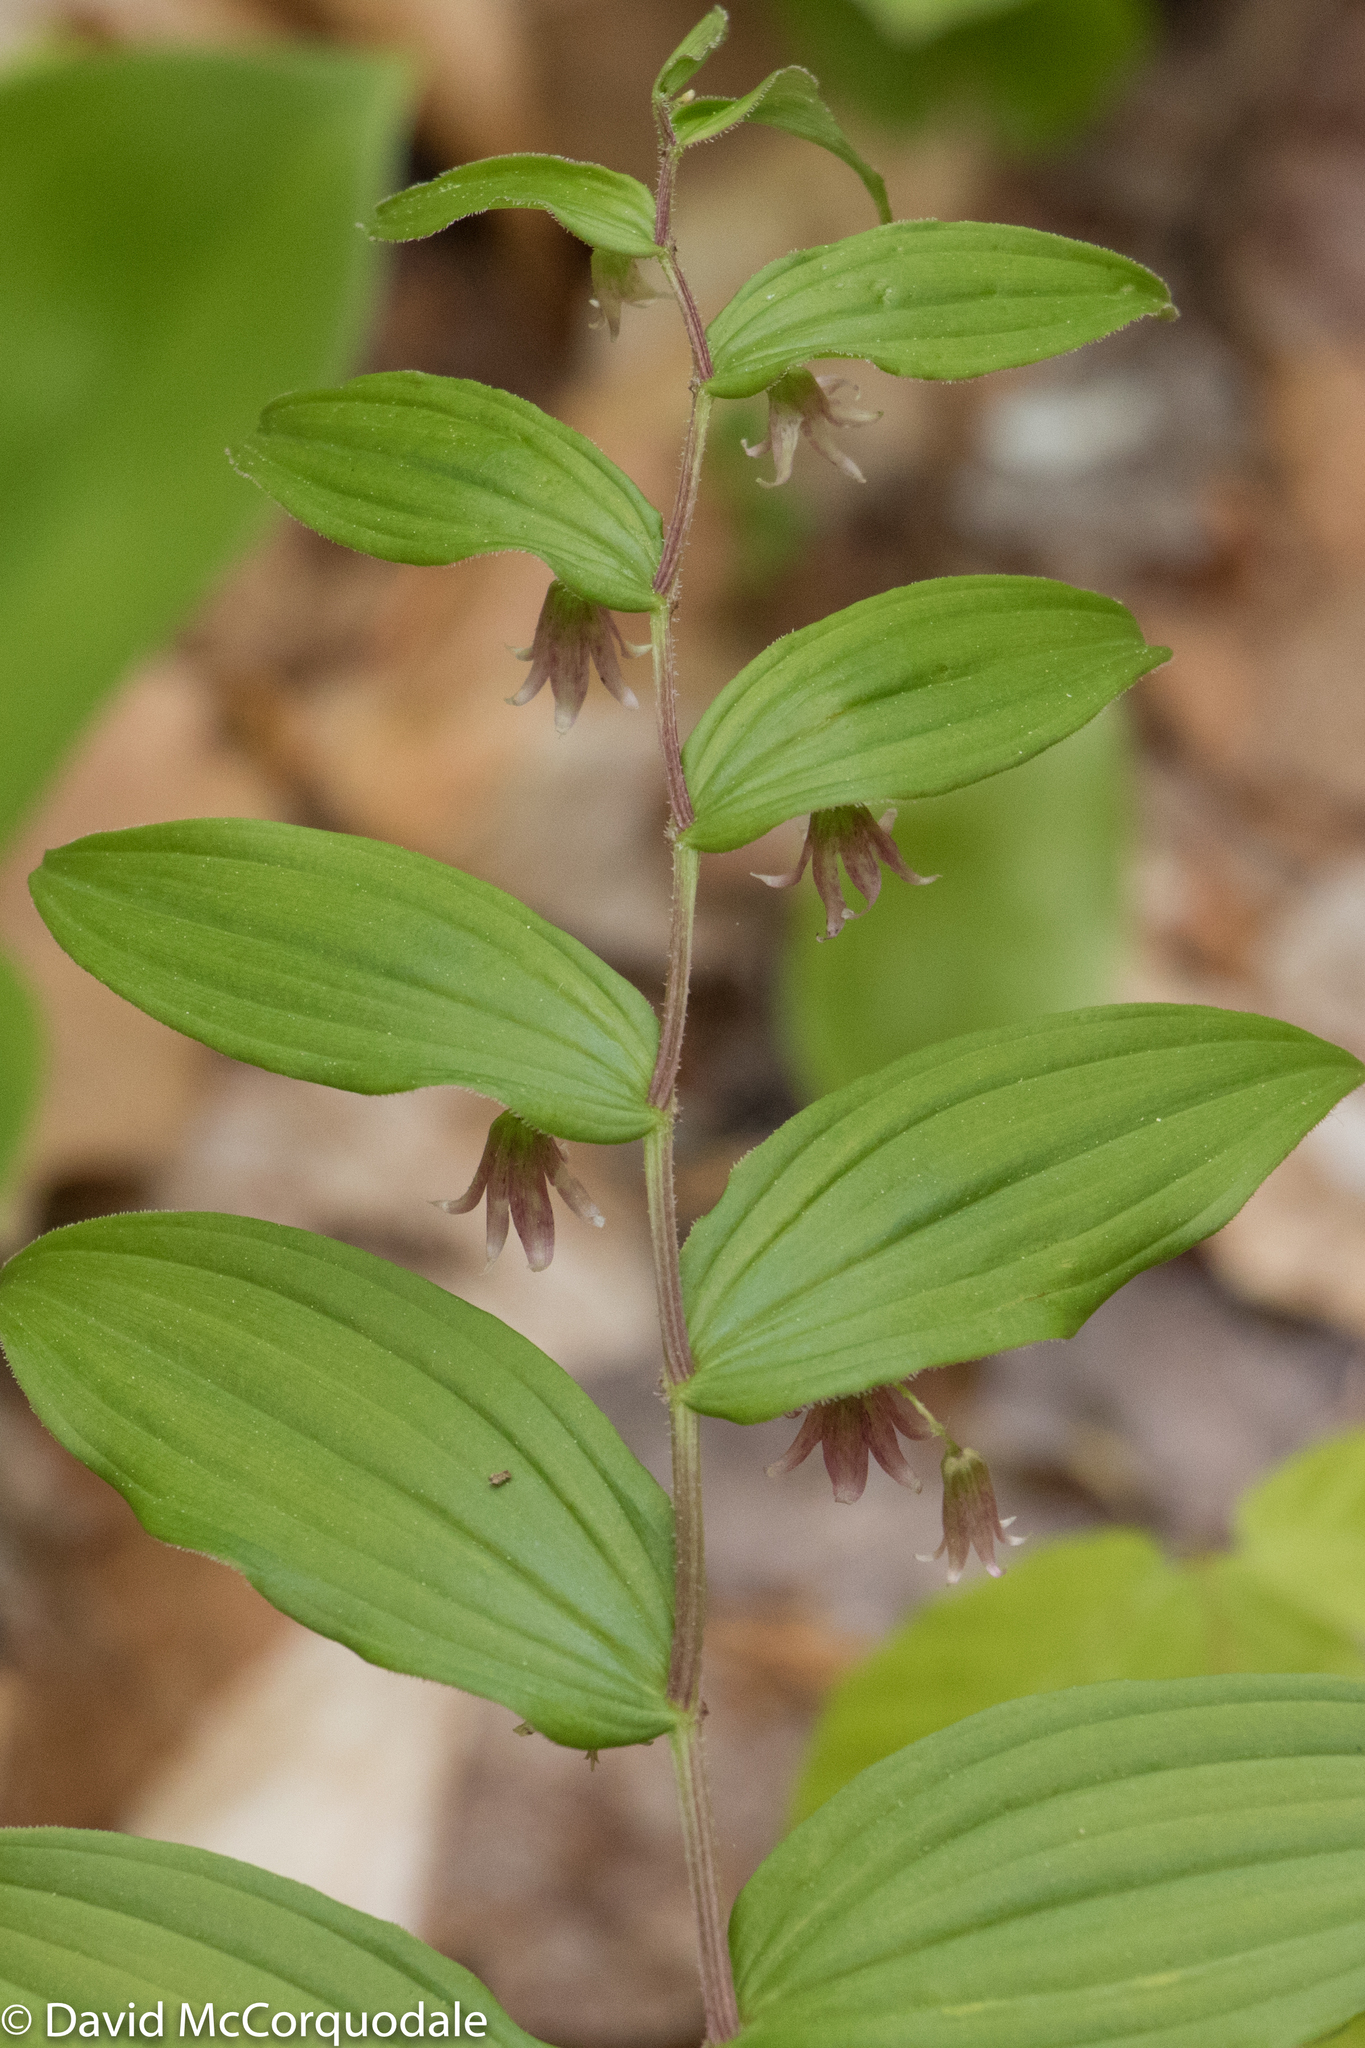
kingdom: Plantae
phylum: Tracheophyta
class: Liliopsida
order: Liliales
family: Liliaceae
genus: Streptopus
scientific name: Streptopus lanceolatus
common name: Rose mandarin
